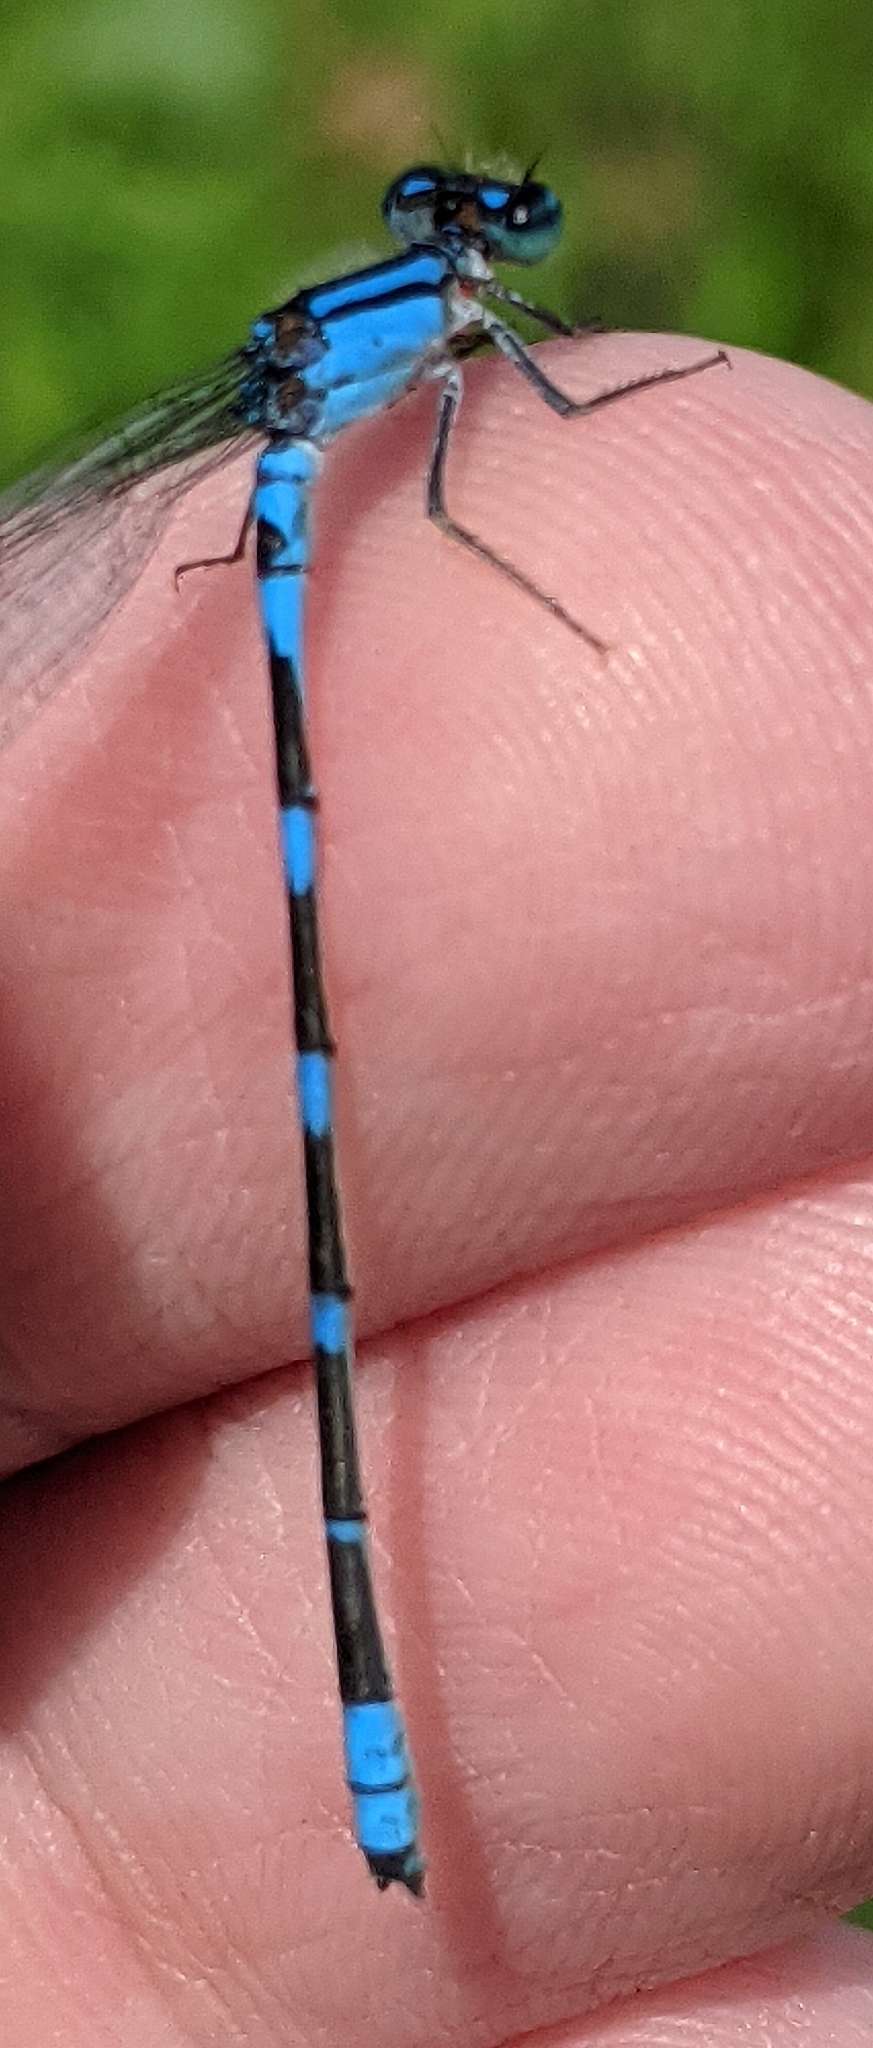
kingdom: Animalia
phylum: Arthropoda
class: Insecta
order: Odonata
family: Coenagrionidae
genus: Enallagma
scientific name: Enallagma carunculatum
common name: Tule bluet
